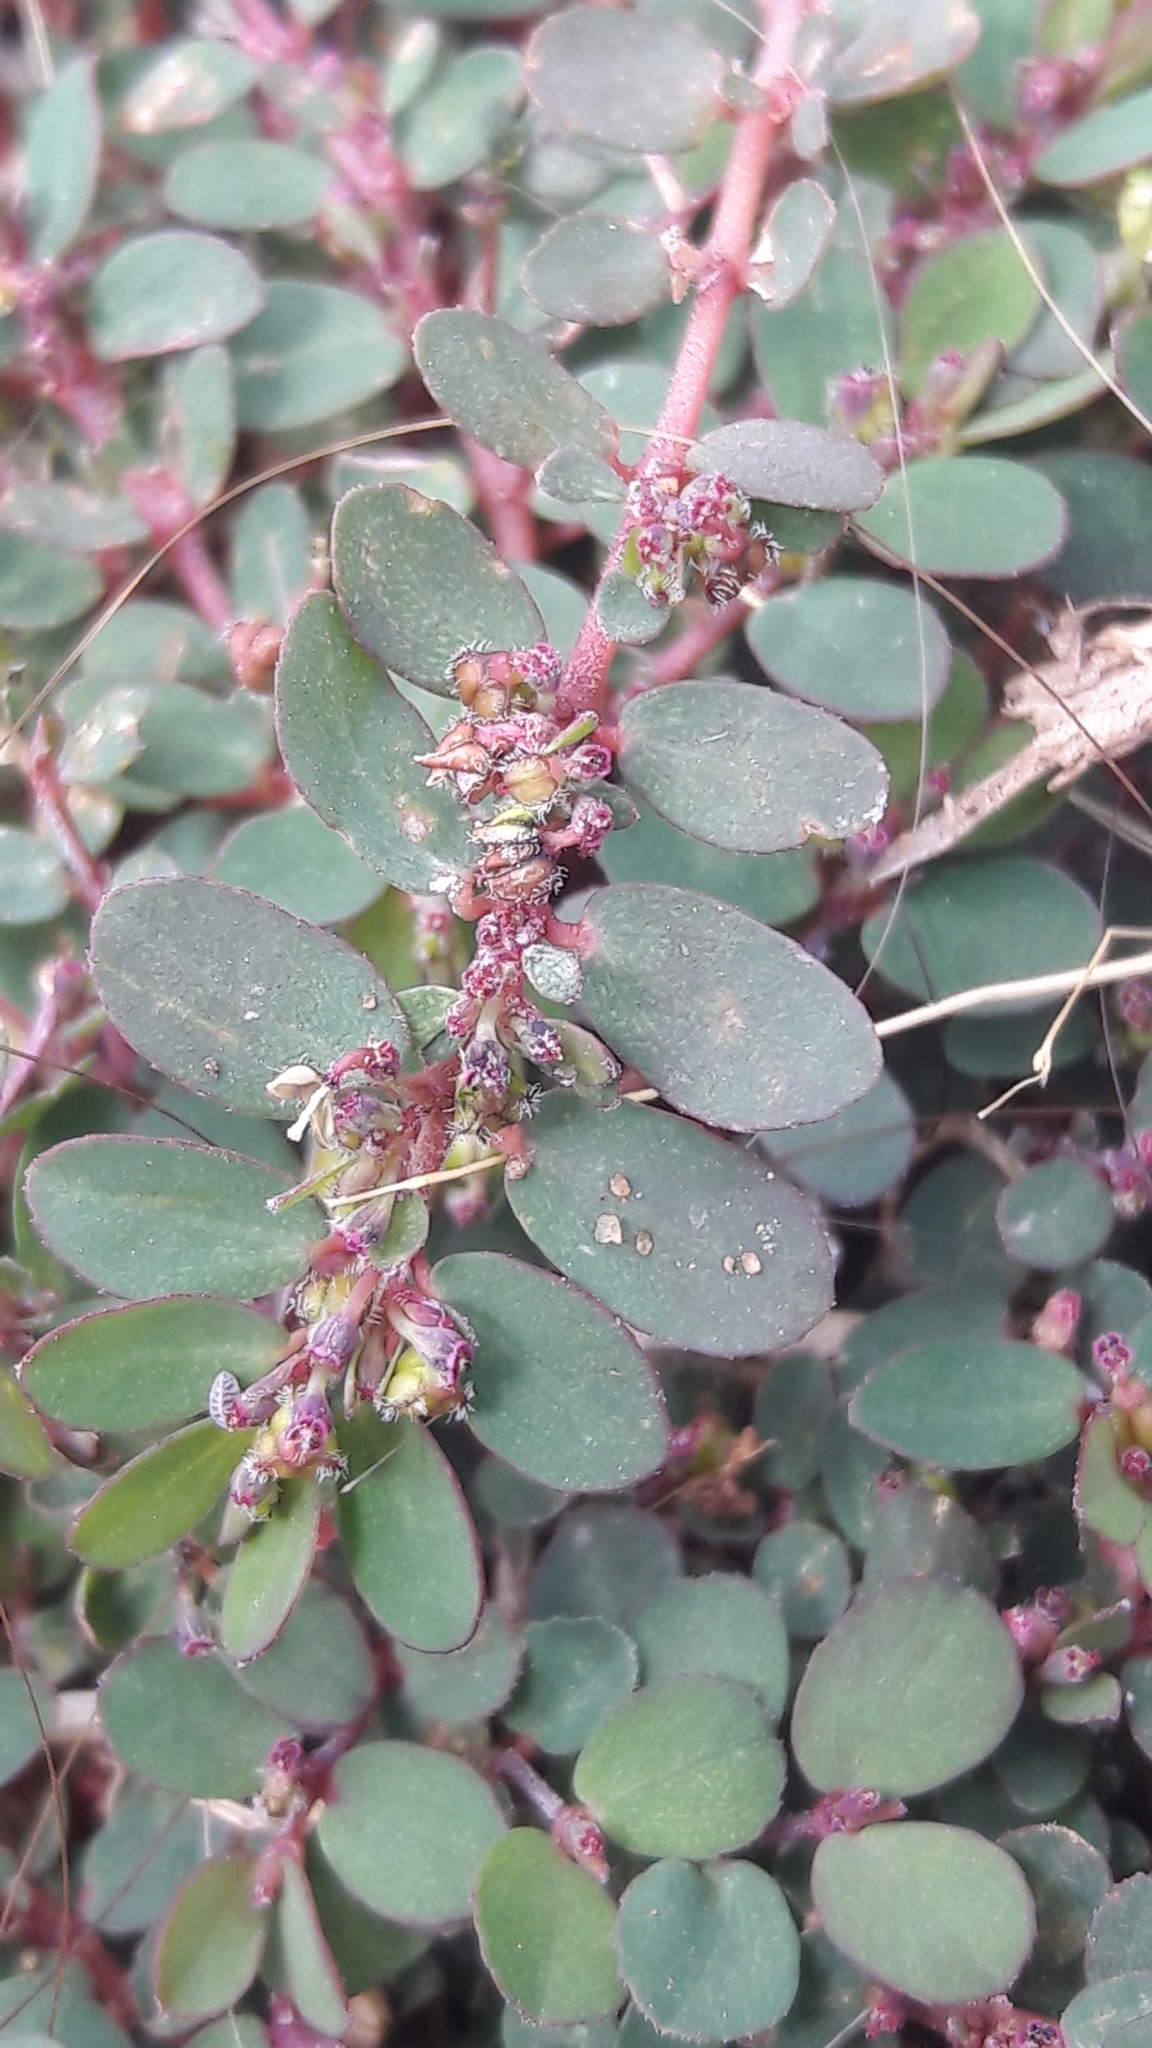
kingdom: Plantae
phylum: Tracheophyta
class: Magnoliopsida
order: Malpighiales
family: Euphorbiaceae
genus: Euphorbia
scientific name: Euphorbia prostrata
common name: Prostrate sandmat
